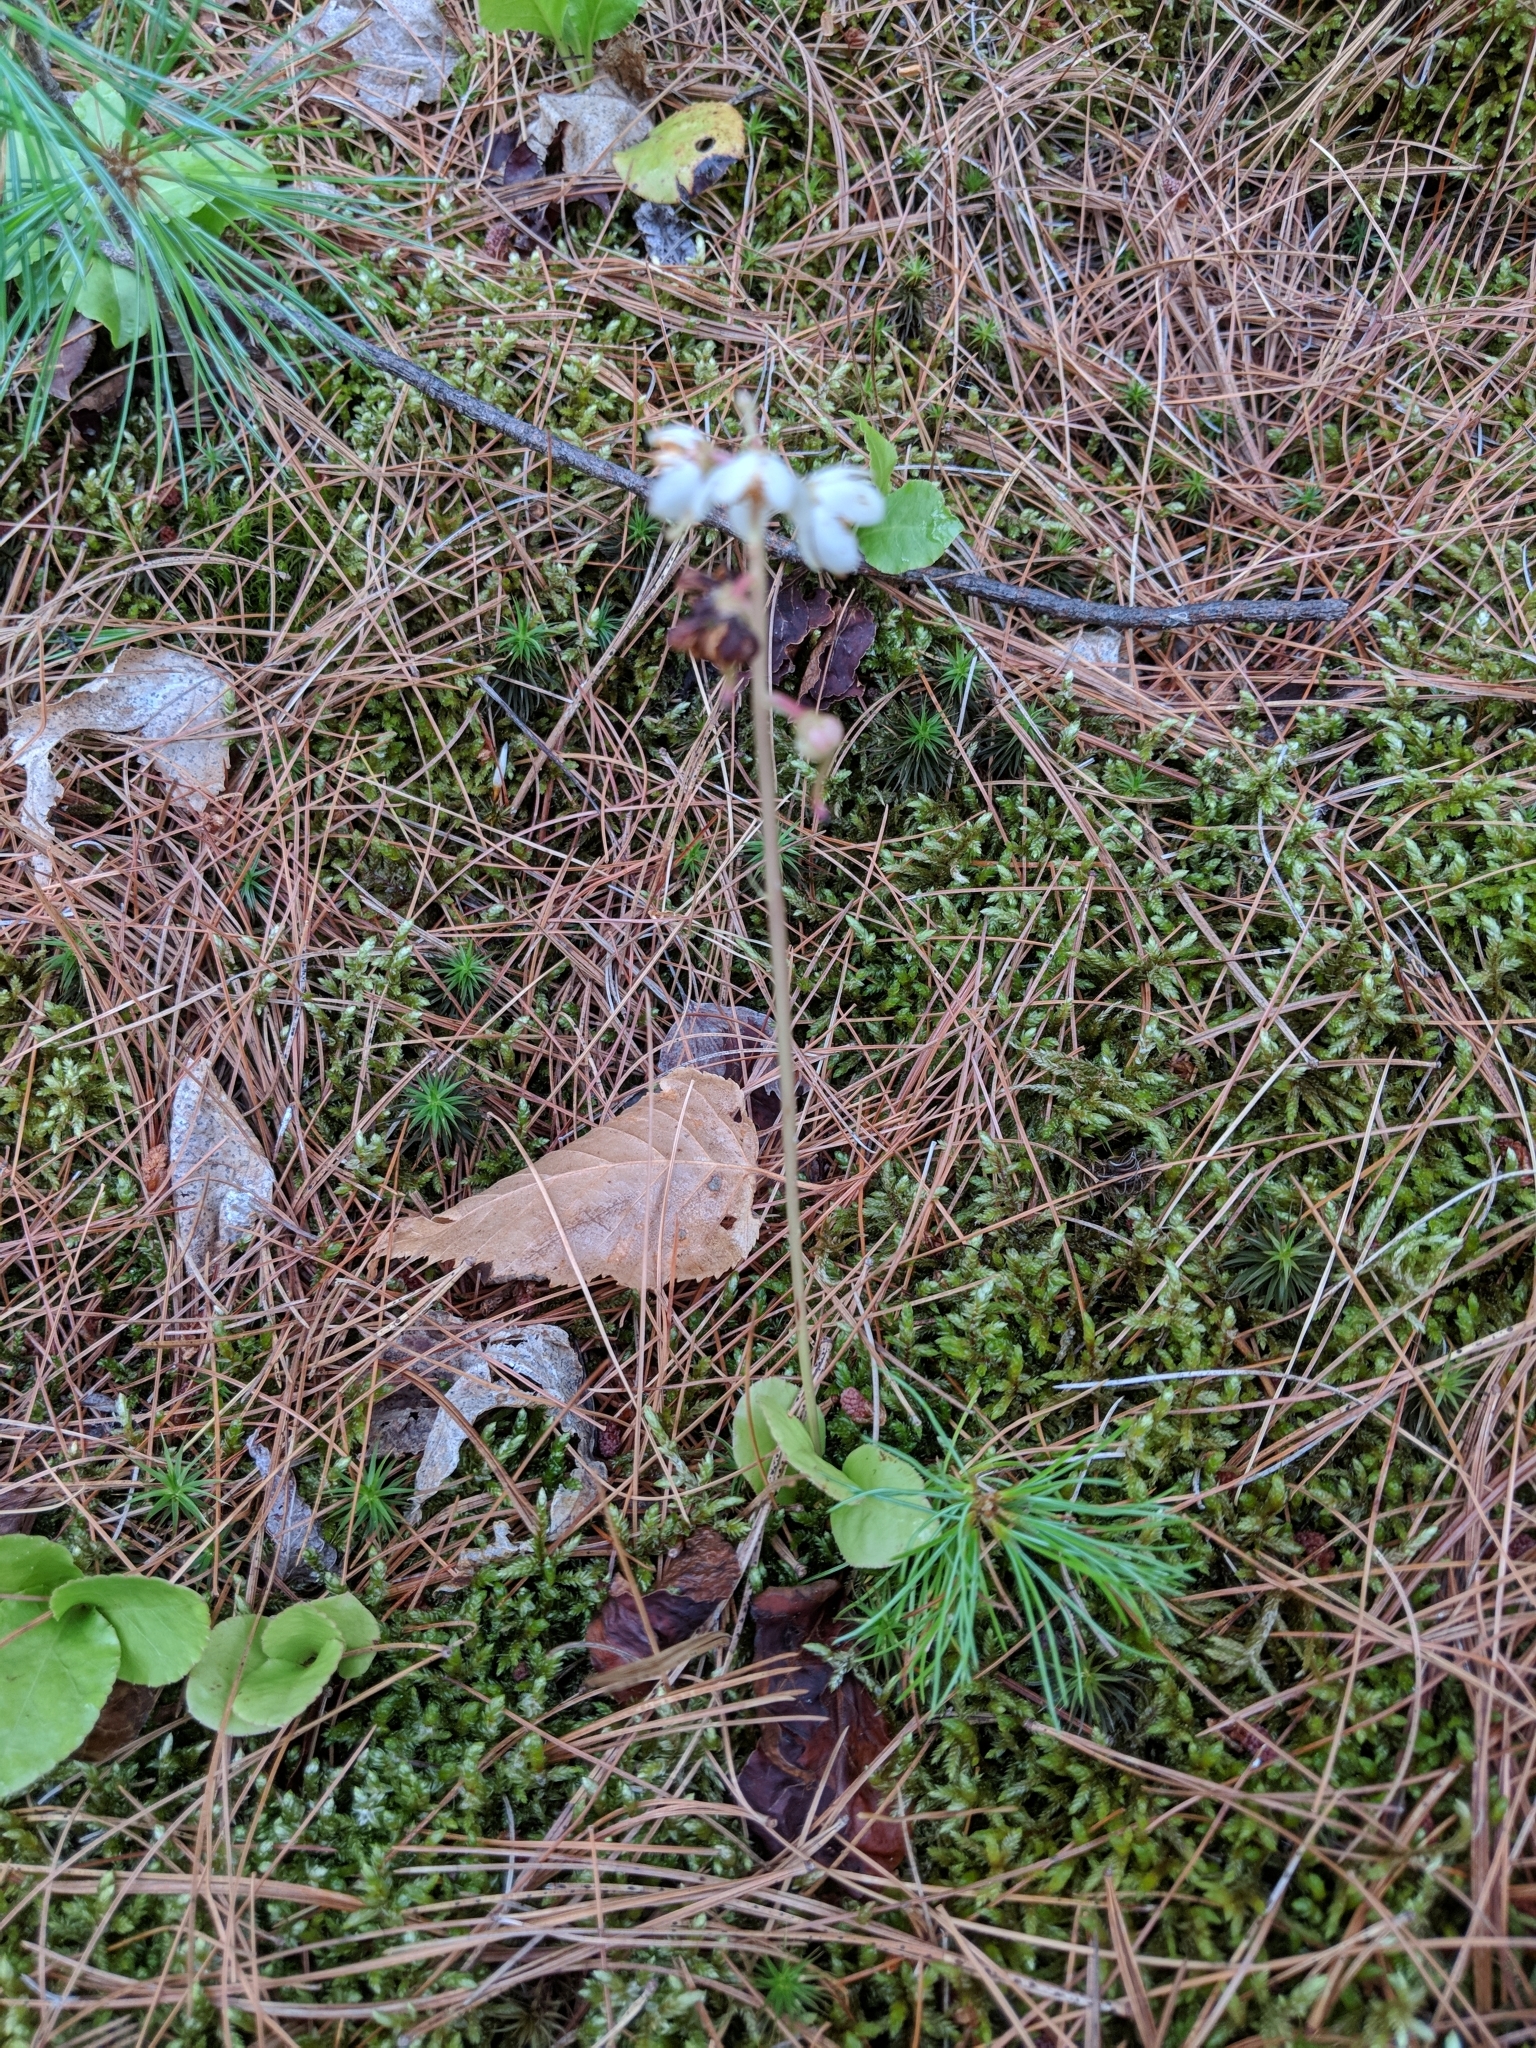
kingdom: Plantae
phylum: Tracheophyta
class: Magnoliopsida
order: Ericales
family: Ericaceae
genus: Pyrola
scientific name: Pyrola elliptica
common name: Shinleaf
